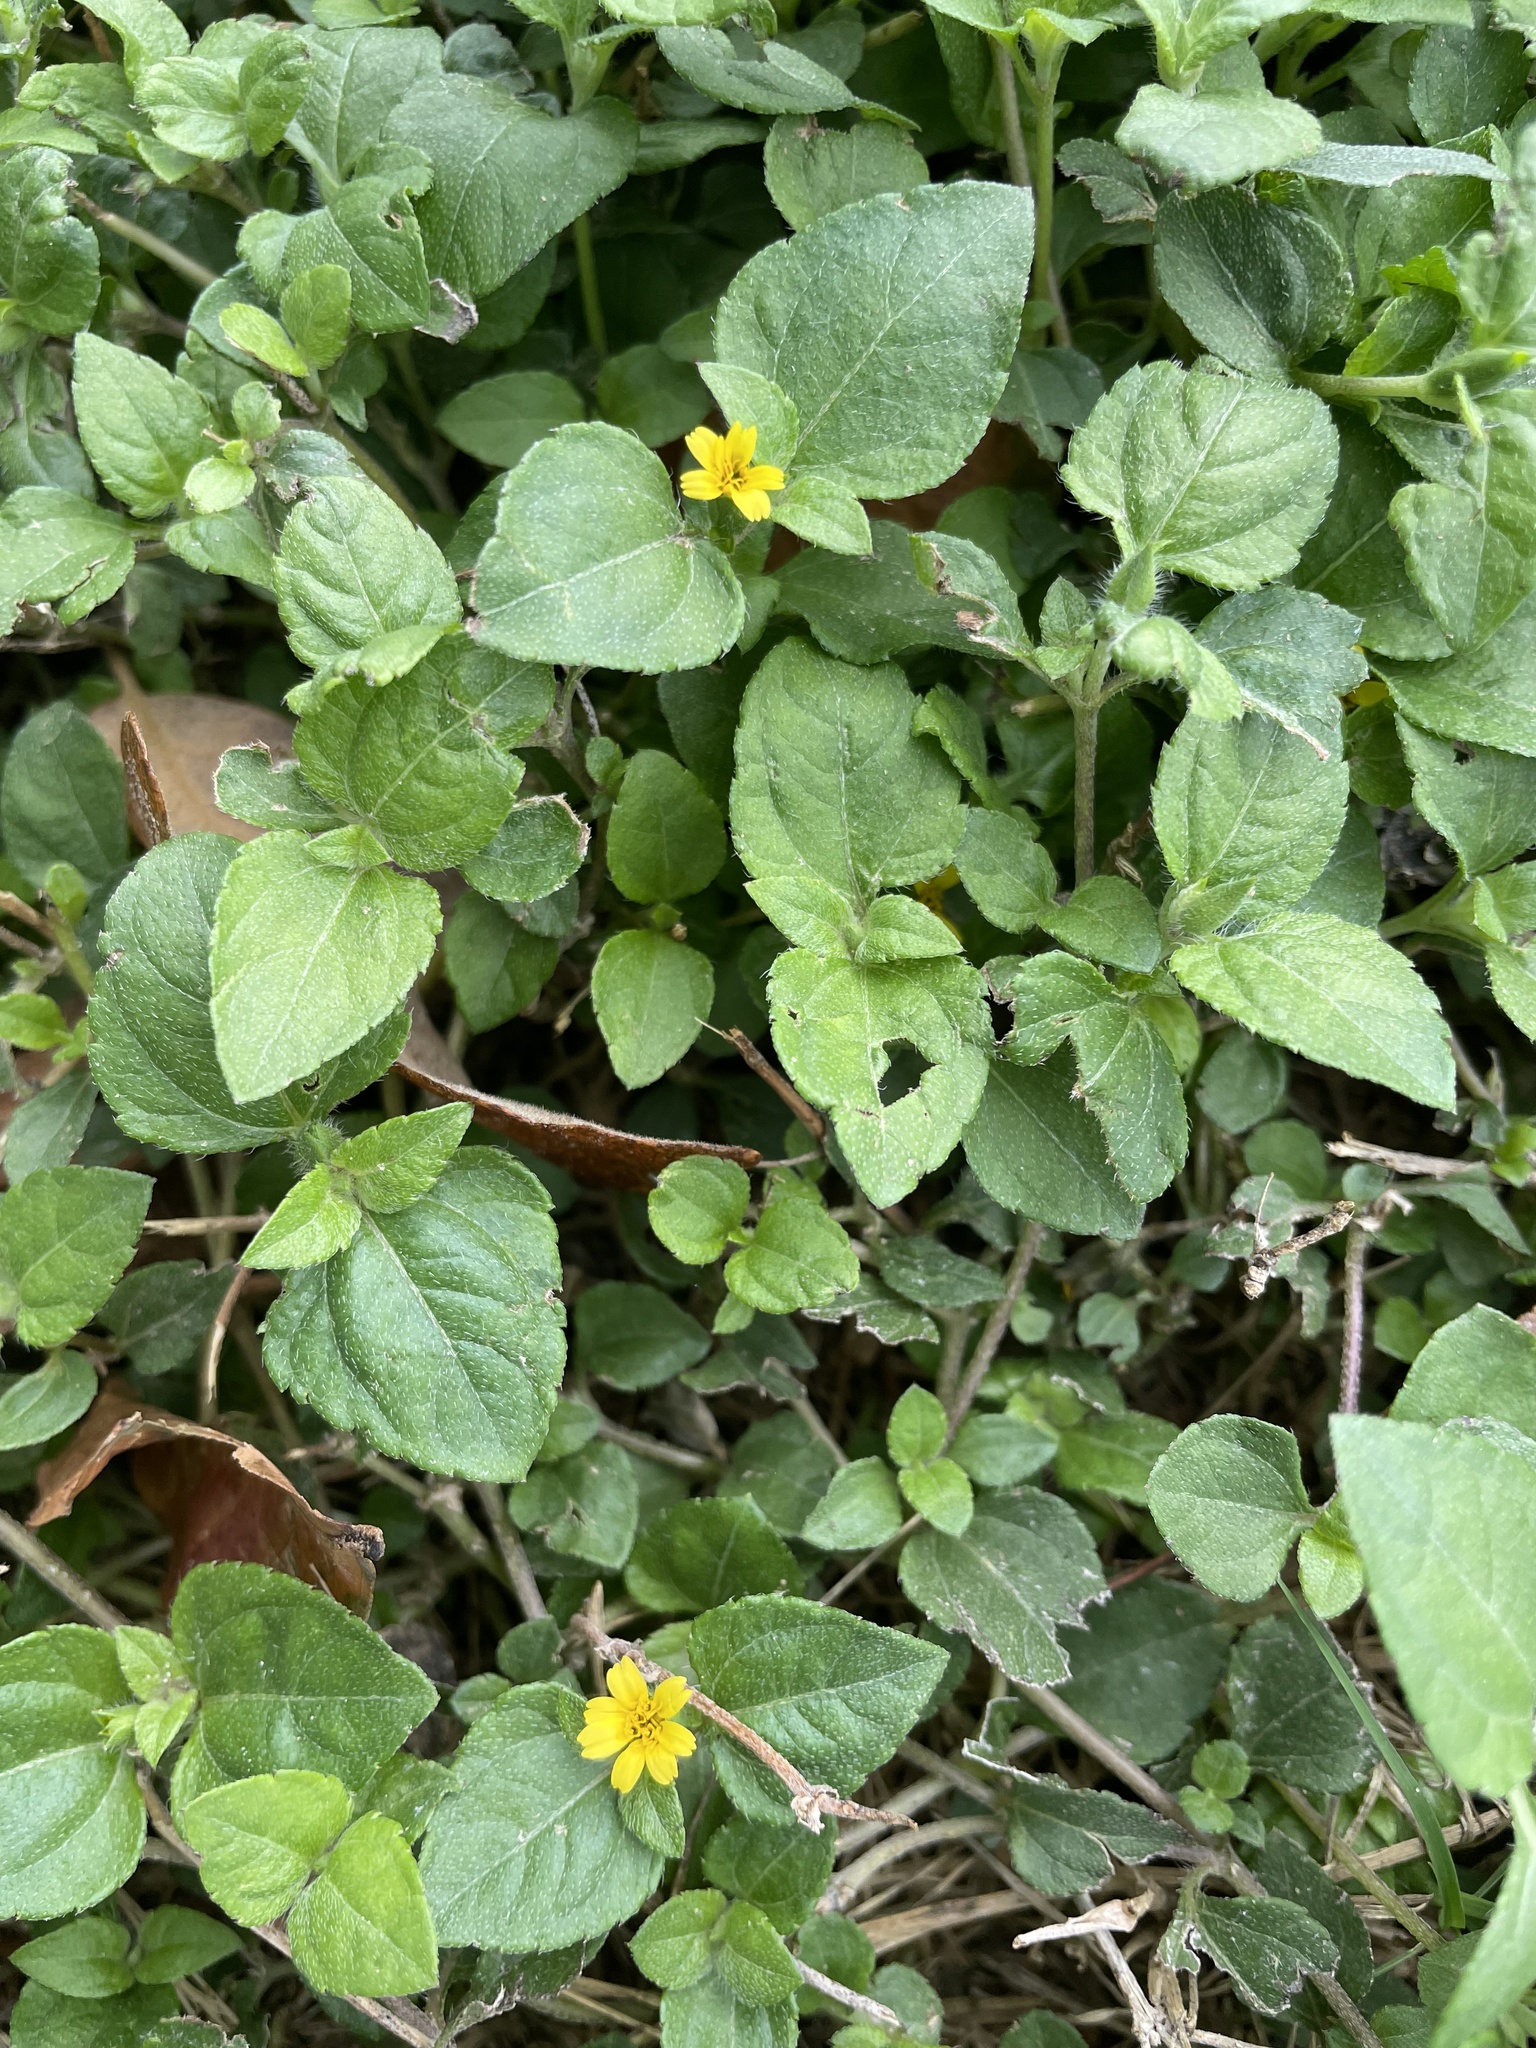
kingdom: Plantae
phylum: Tracheophyta
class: Magnoliopsida
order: Asterales
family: Asteraceae
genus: Calyptocarpus
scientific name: Calyptocarpus vialis
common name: Straggler daisy
